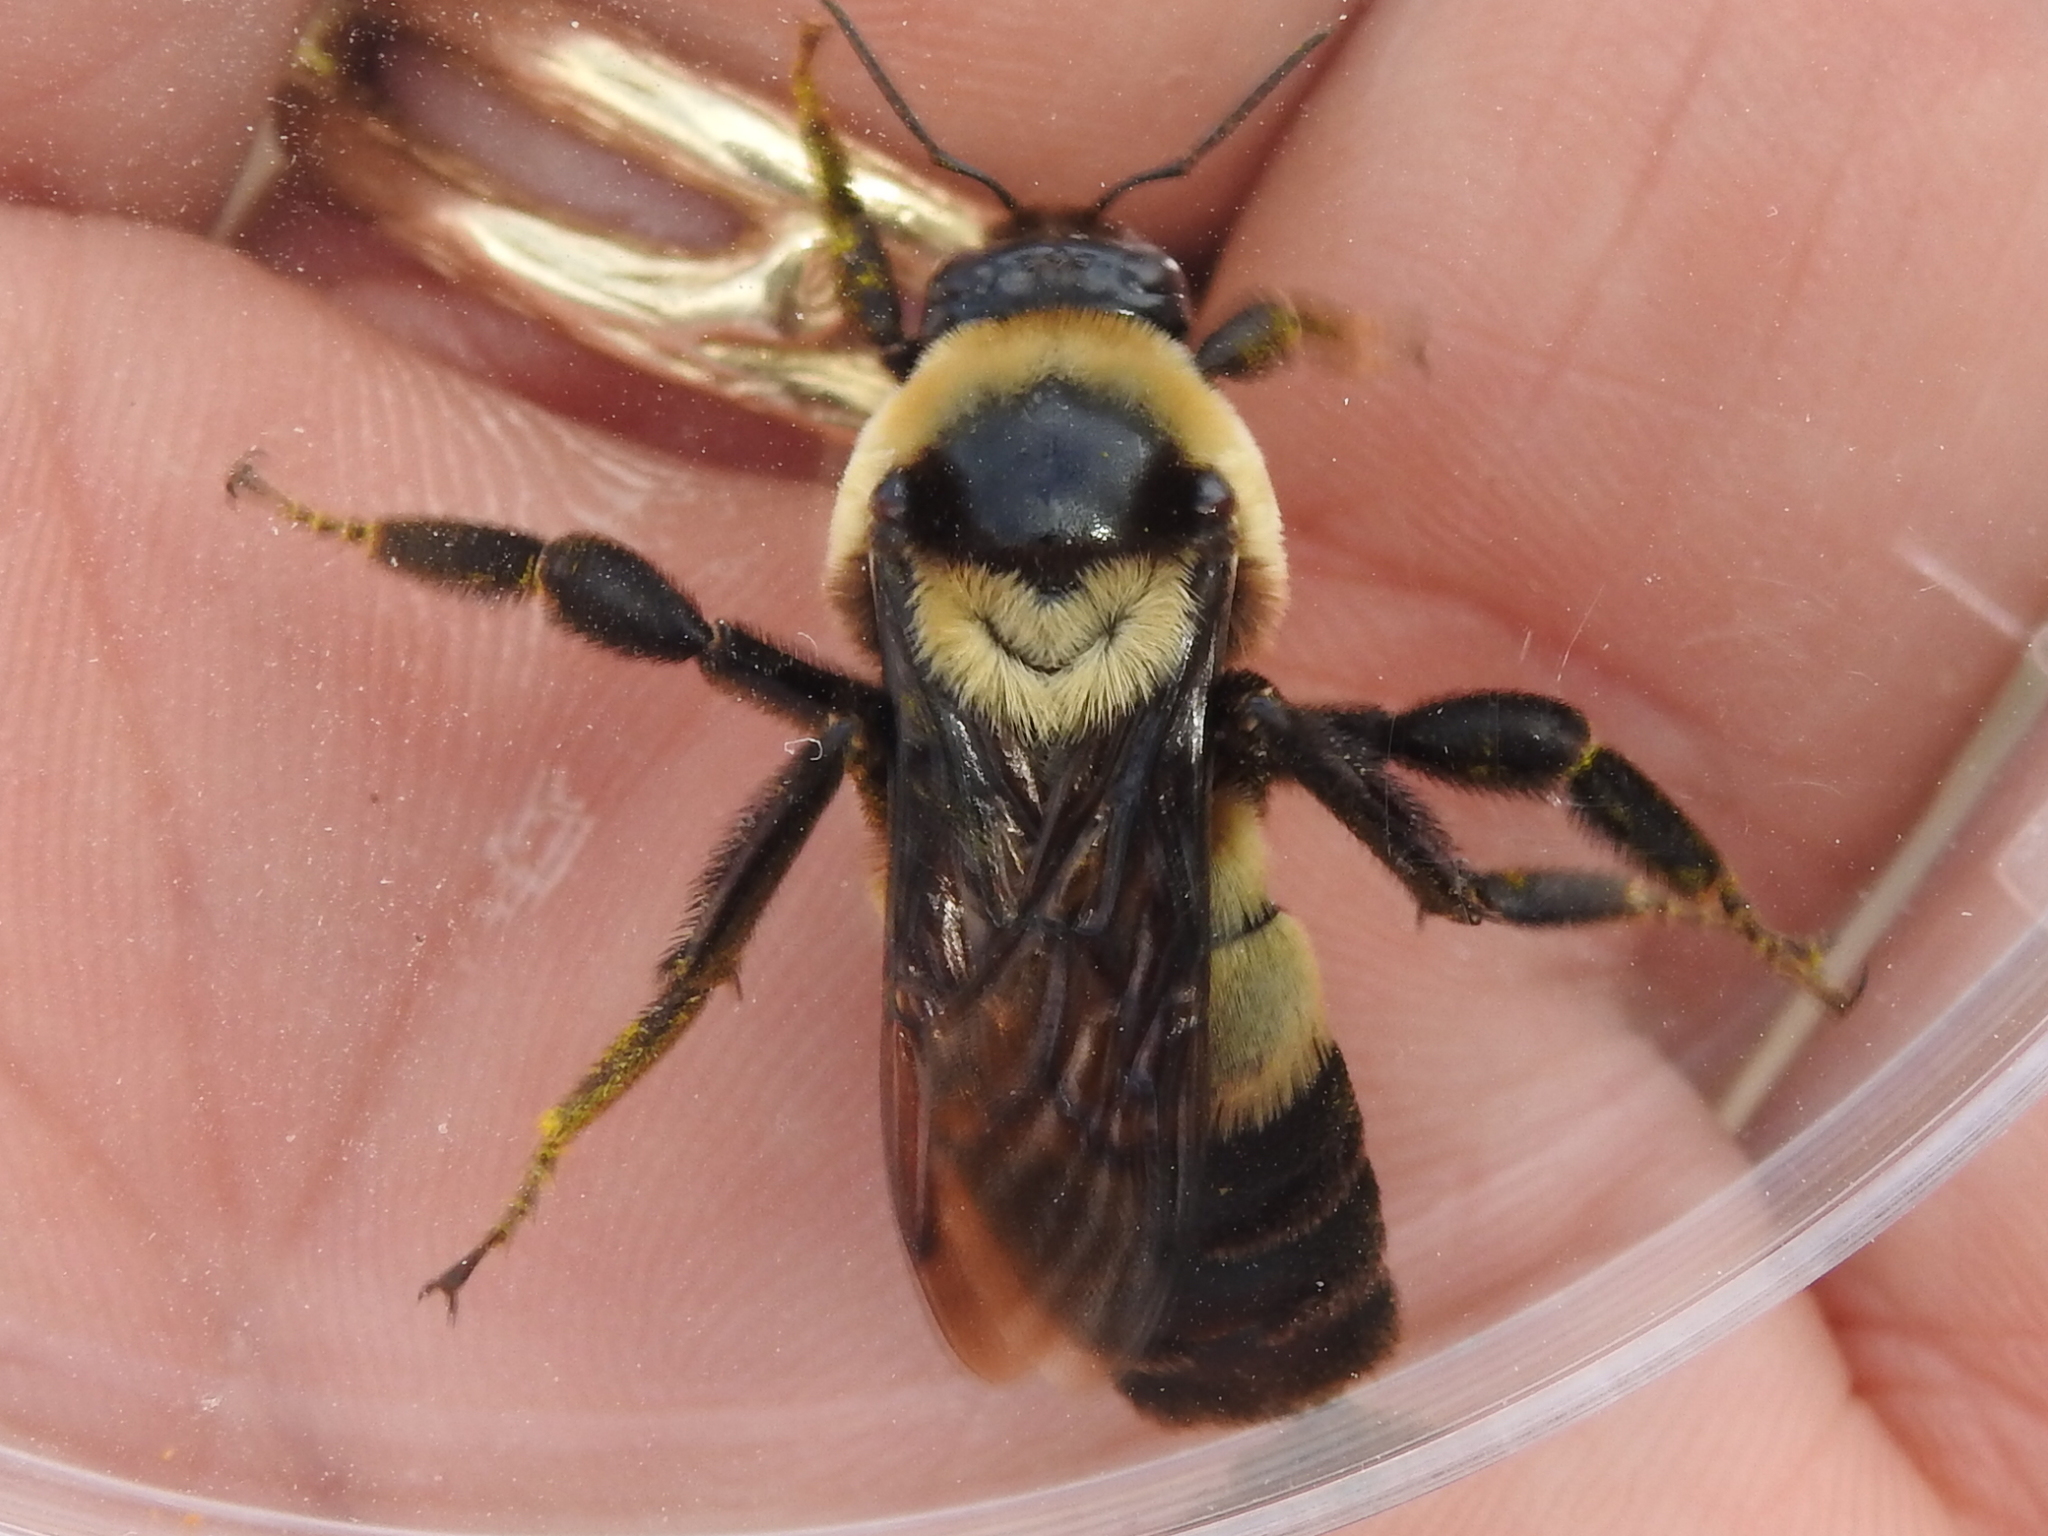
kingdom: Animalia
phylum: Arthropoda
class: Insecta
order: Hymenoptera
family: Apidae
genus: Bombus
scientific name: Bombus fraternus
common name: Southern plains bumble bee
